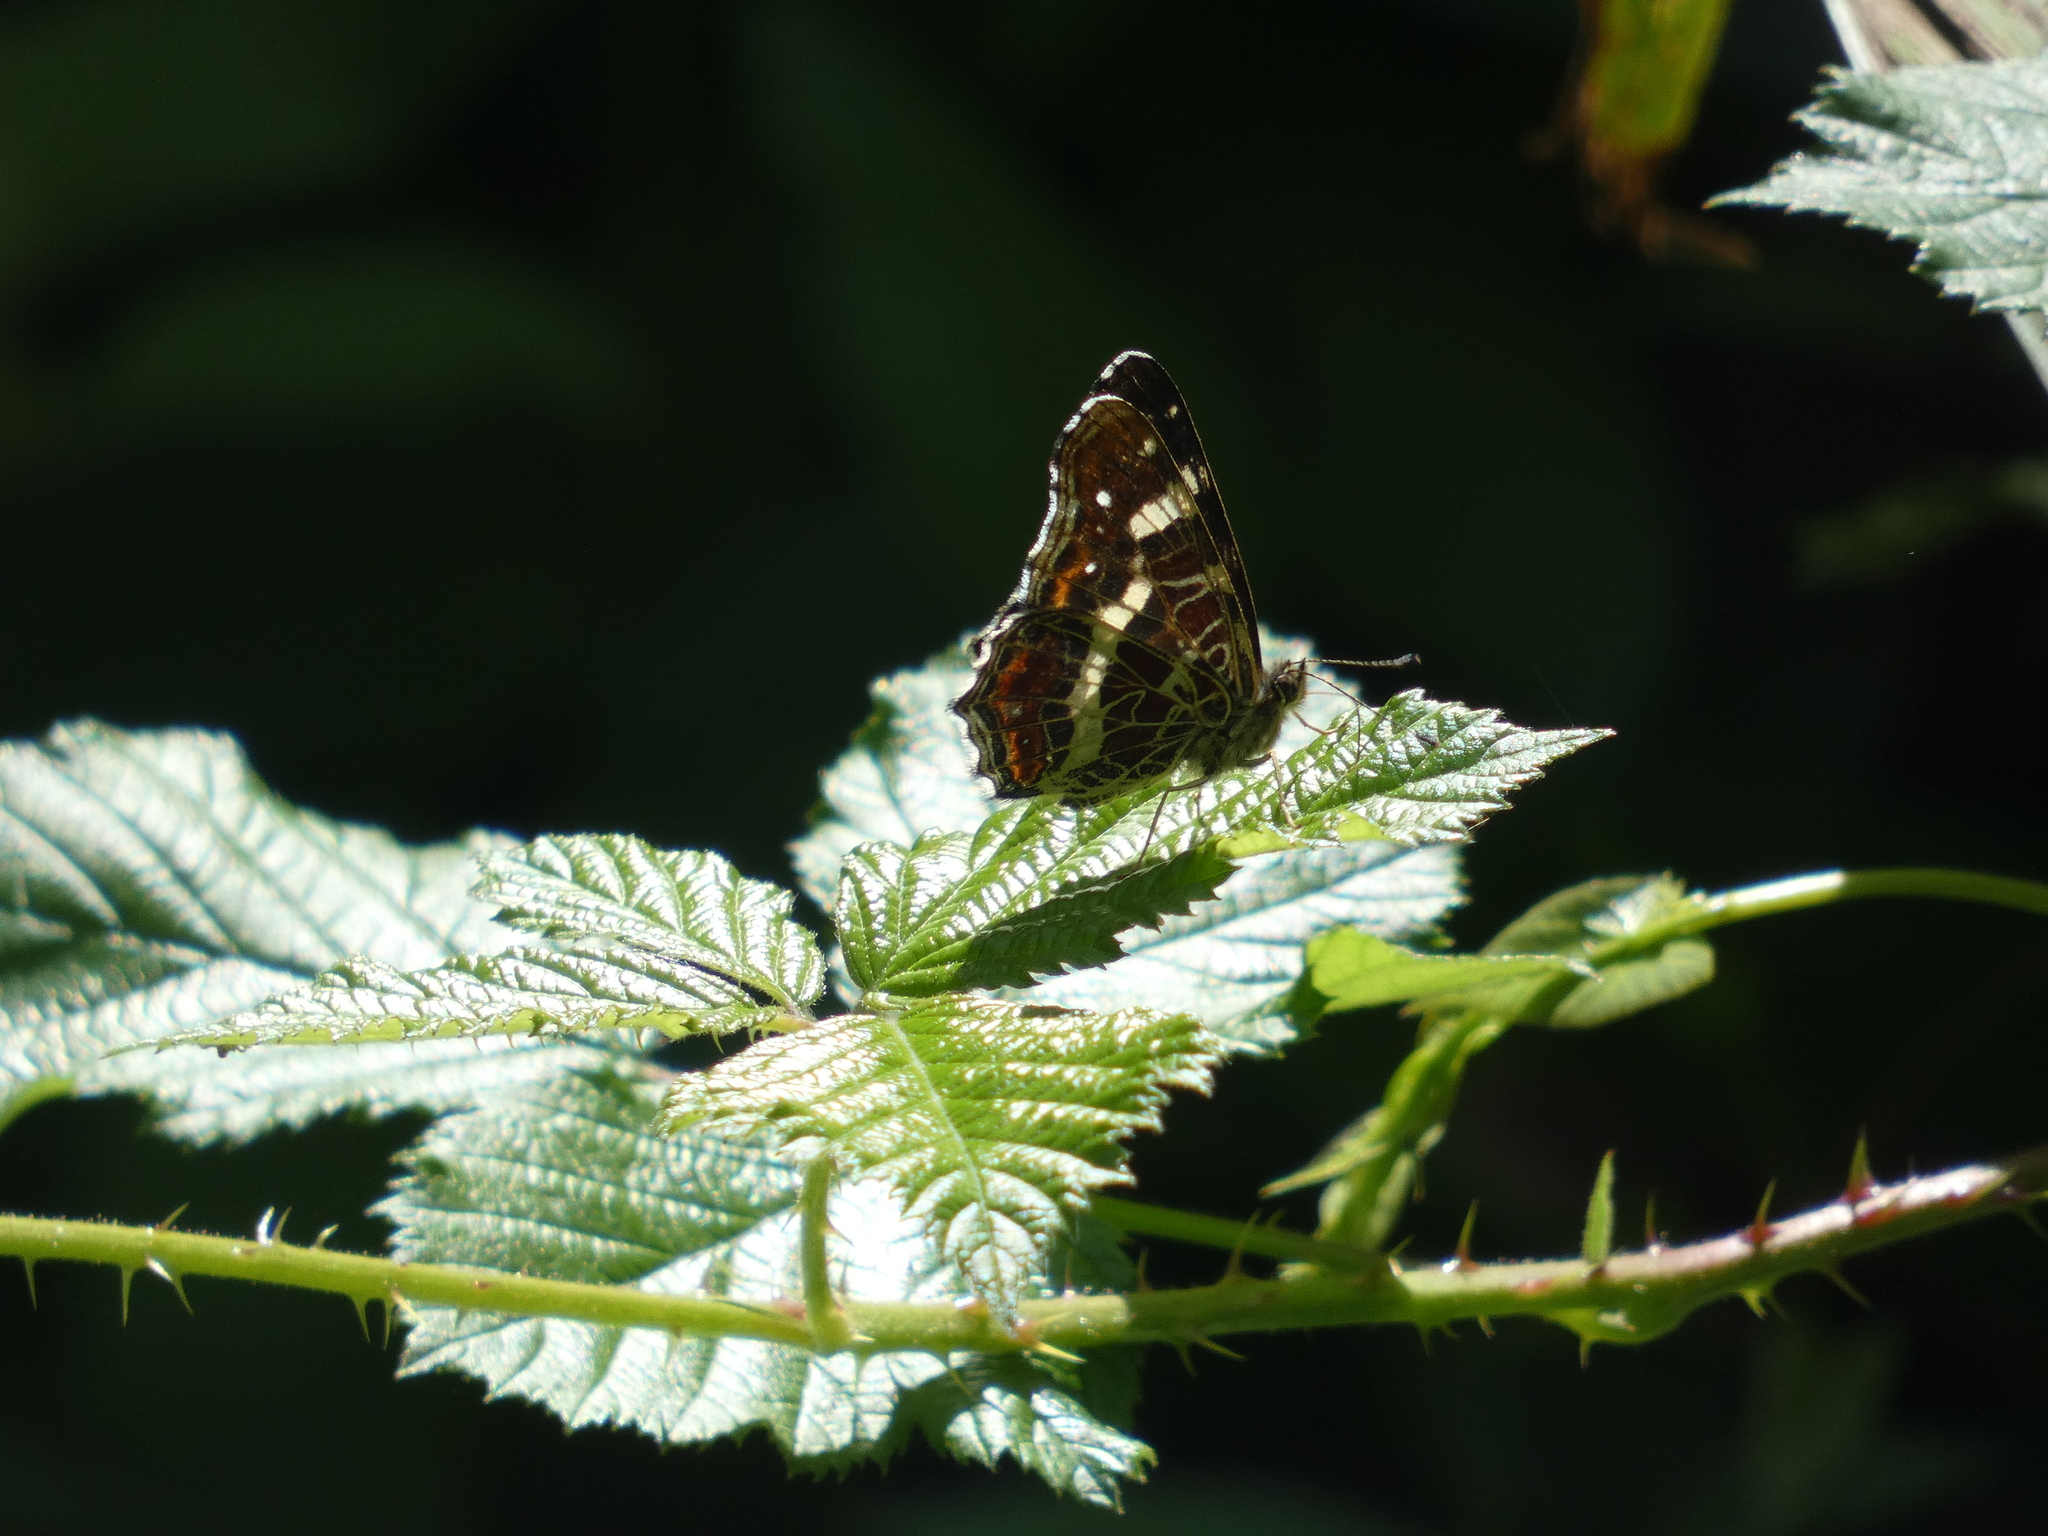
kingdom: Animalia
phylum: Arthropoda
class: Insecta
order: Lepidoptera
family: Nymphalidae
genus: Araschnia
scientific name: Araschnia levana
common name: Map butterfly
